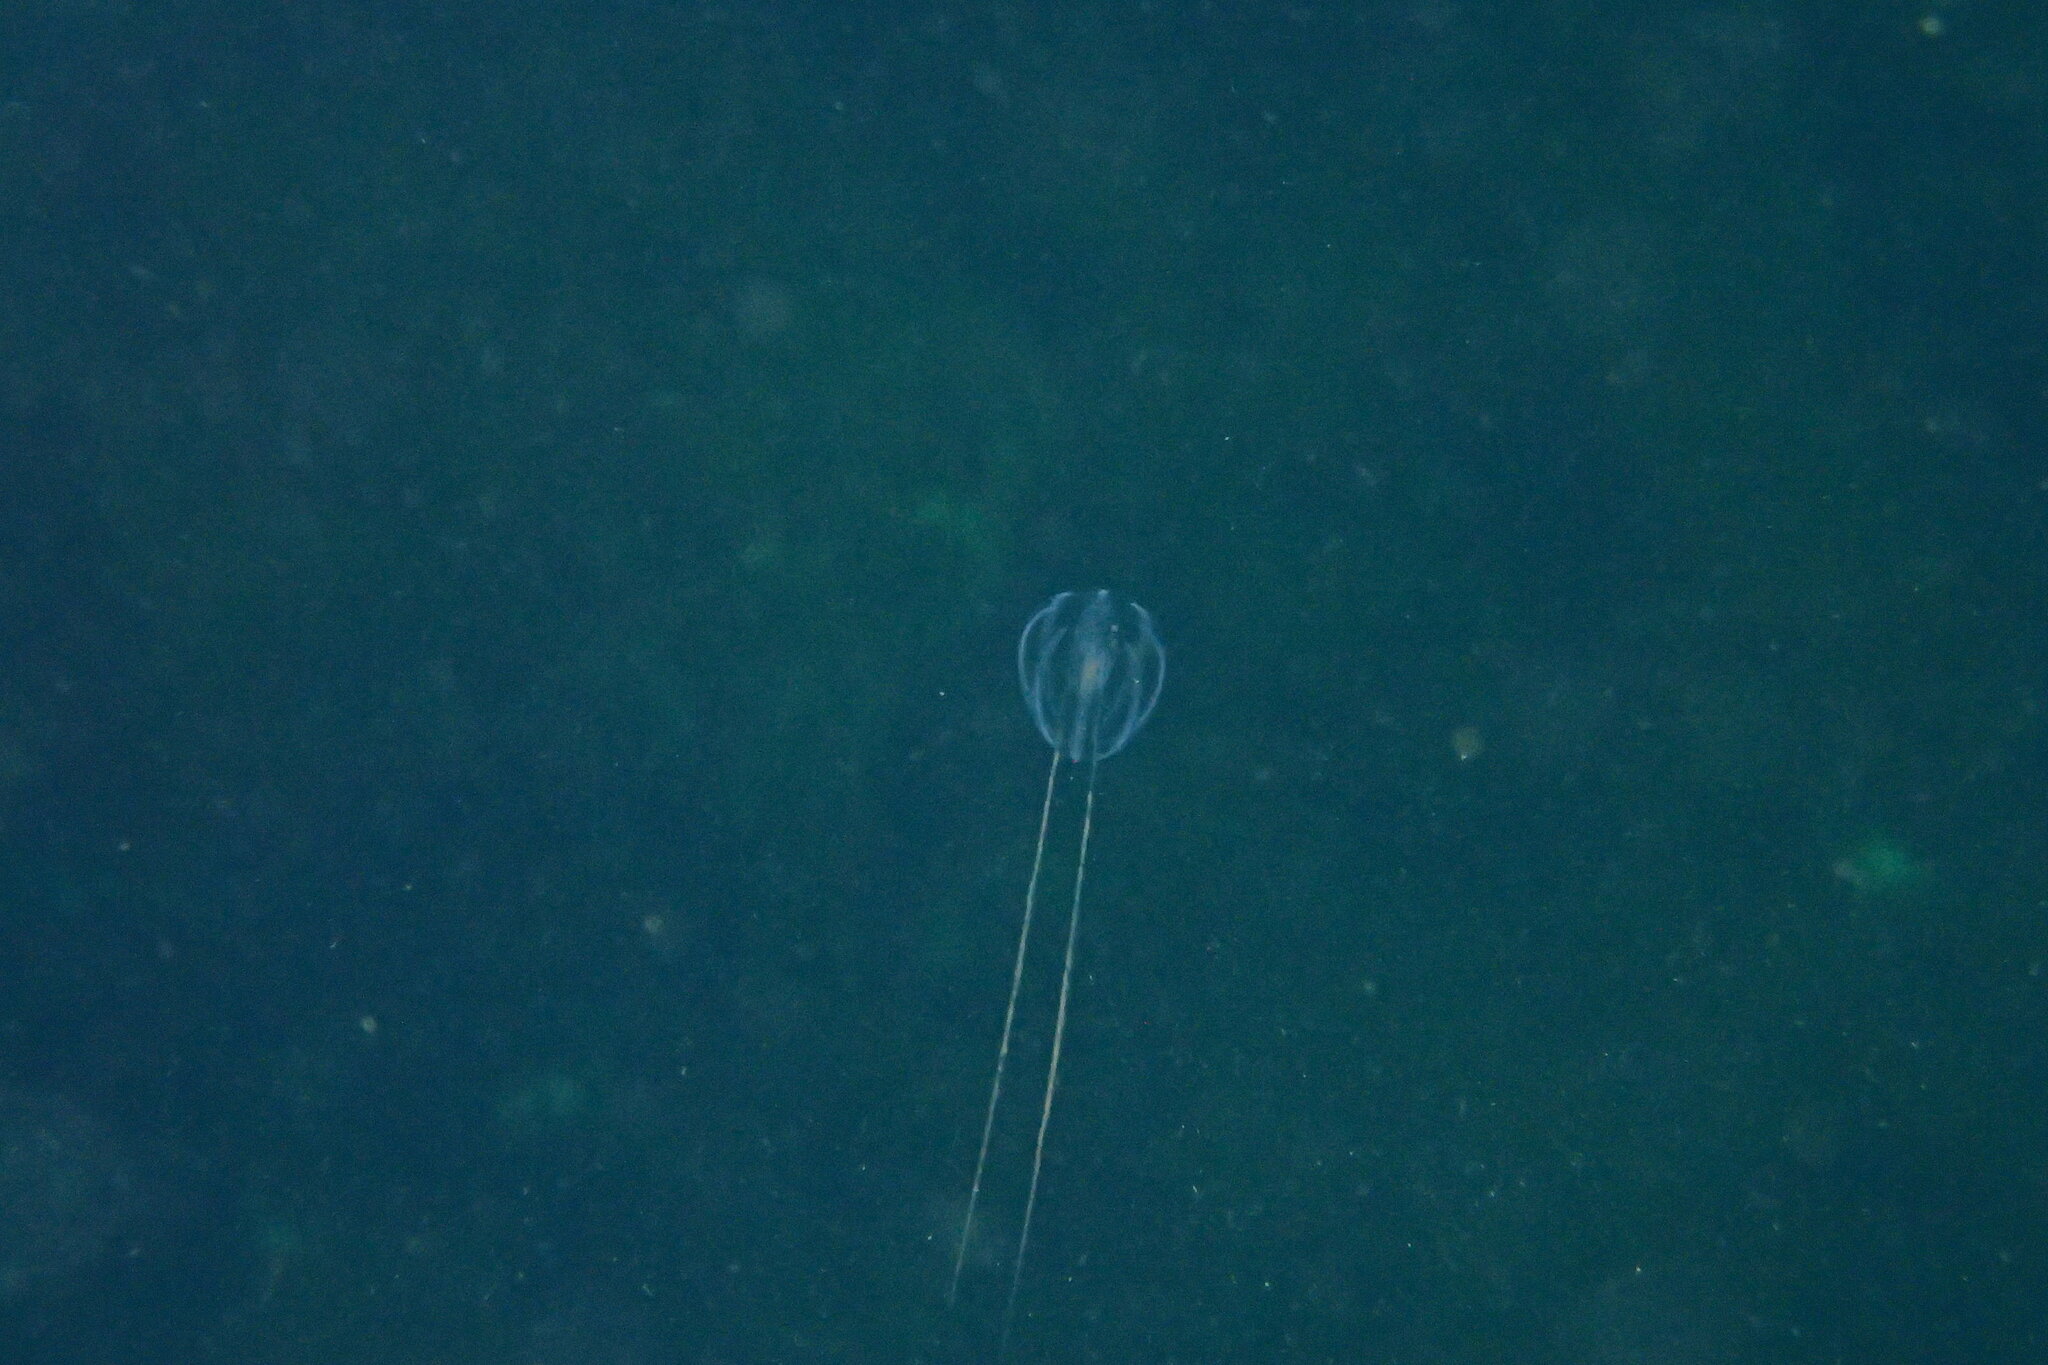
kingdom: Animalia
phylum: Ctenophora
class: Tentaculata
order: Cydippida
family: Pleurobrachiidae
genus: Pleurobrachia
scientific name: Pleurobrachia pileus
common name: Sea gooseberry
